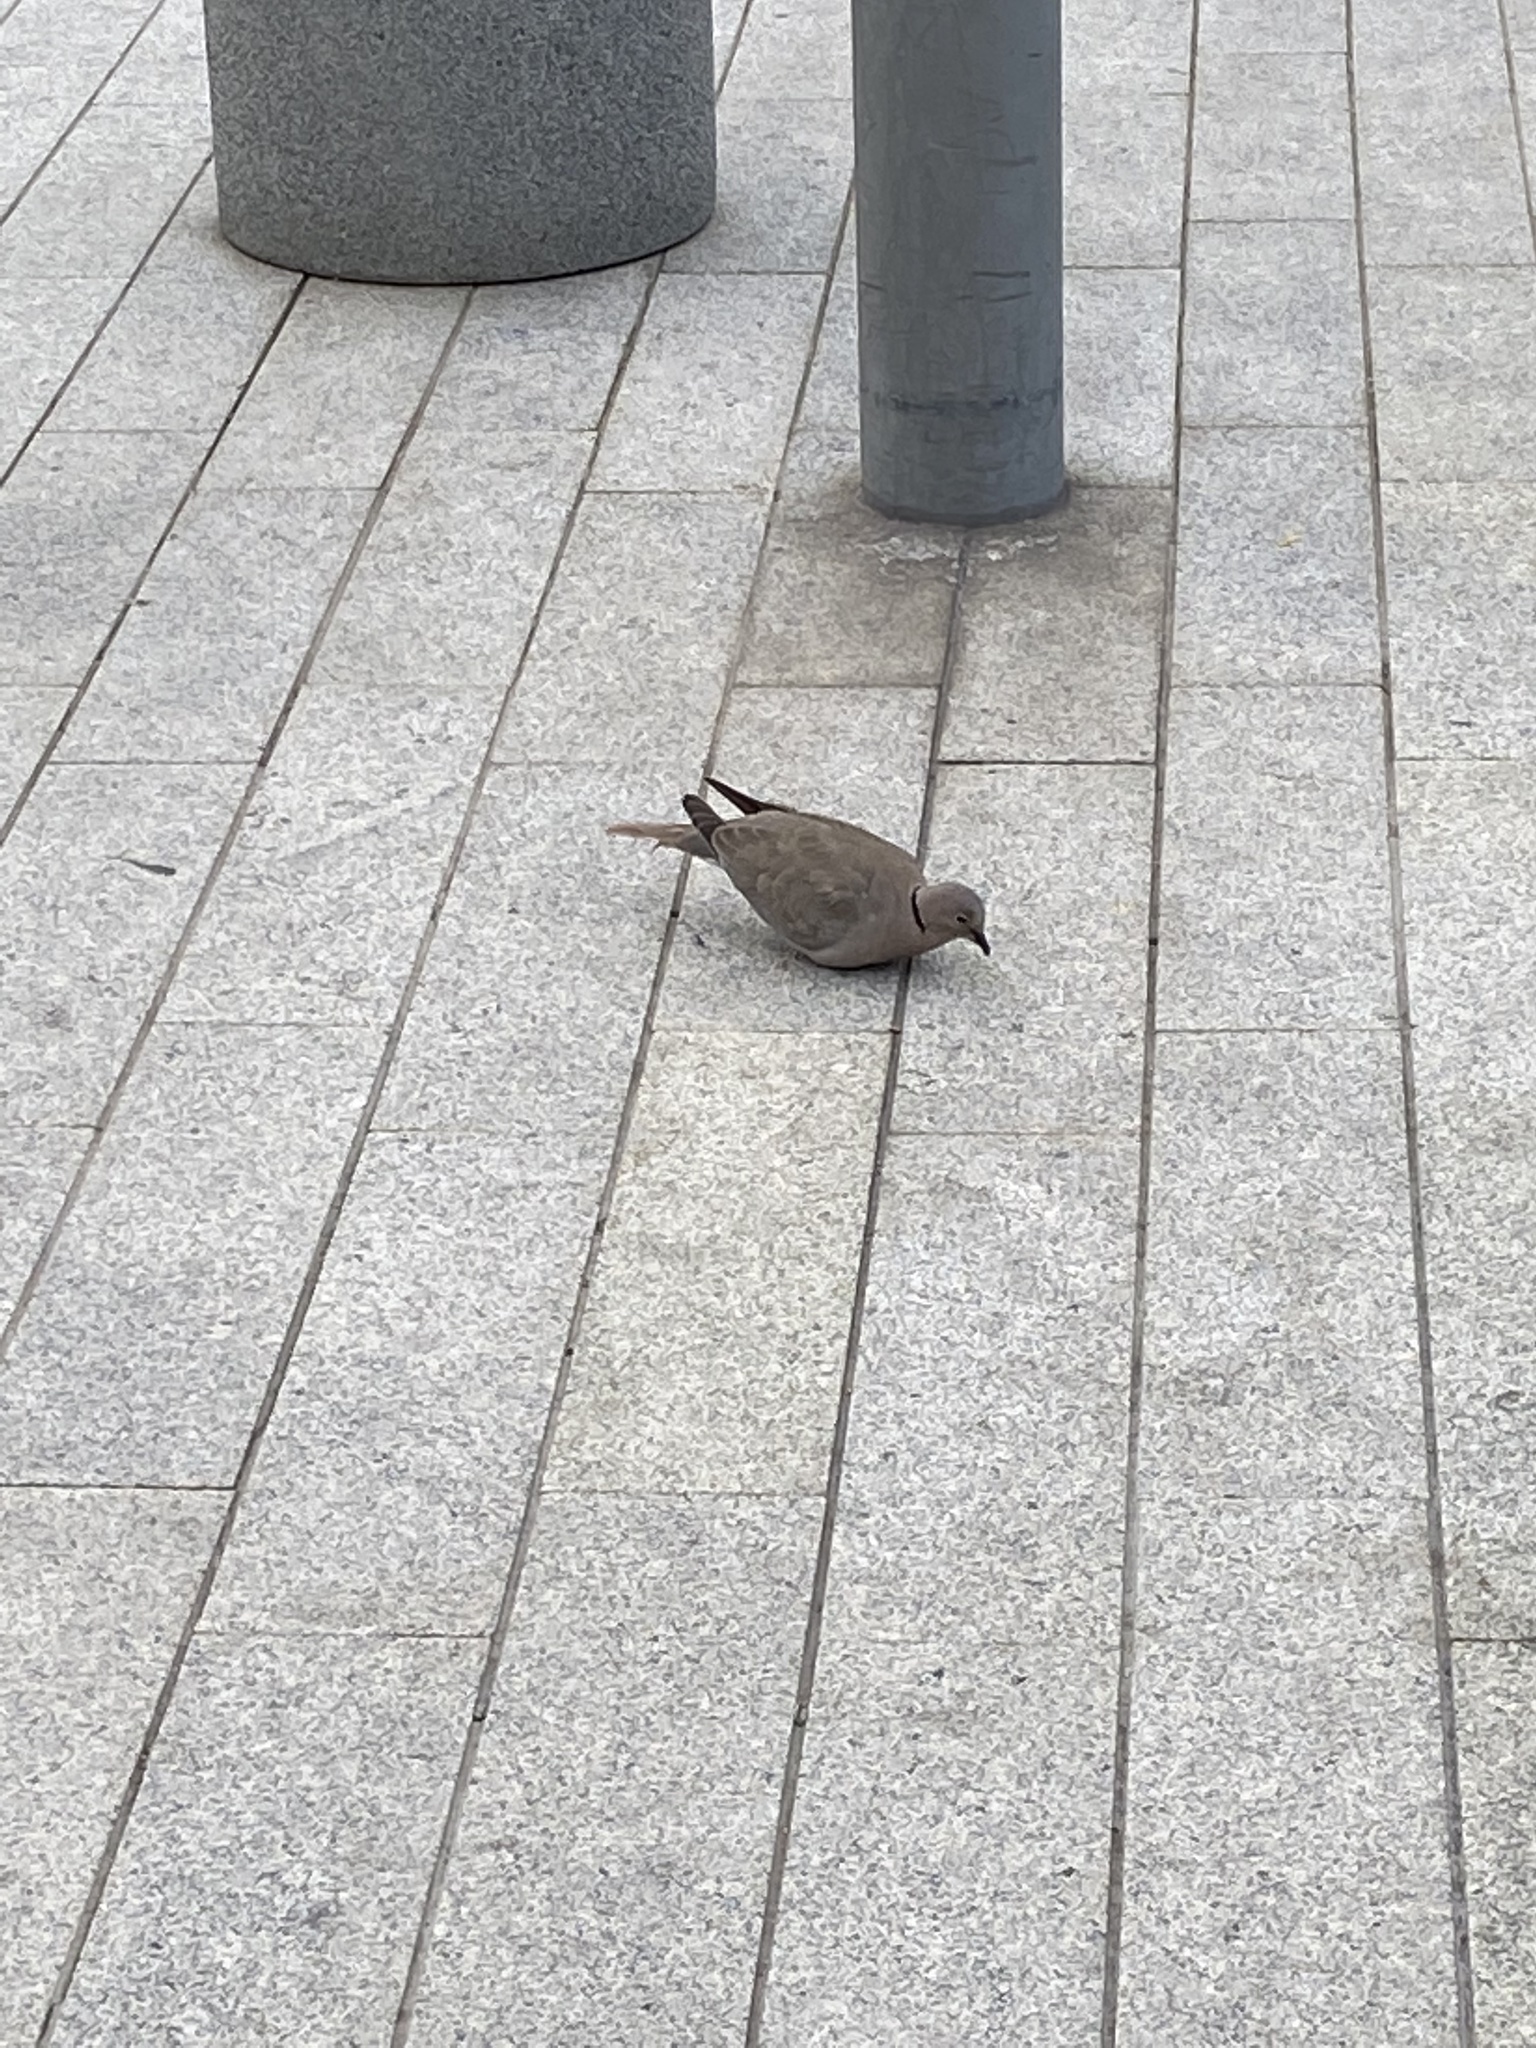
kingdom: Animalia
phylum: Chordata
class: Aves
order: Columbiformes
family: Columbidae
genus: Streptopelia
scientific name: Streptopelia decaocto
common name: Eurasian collared dove
